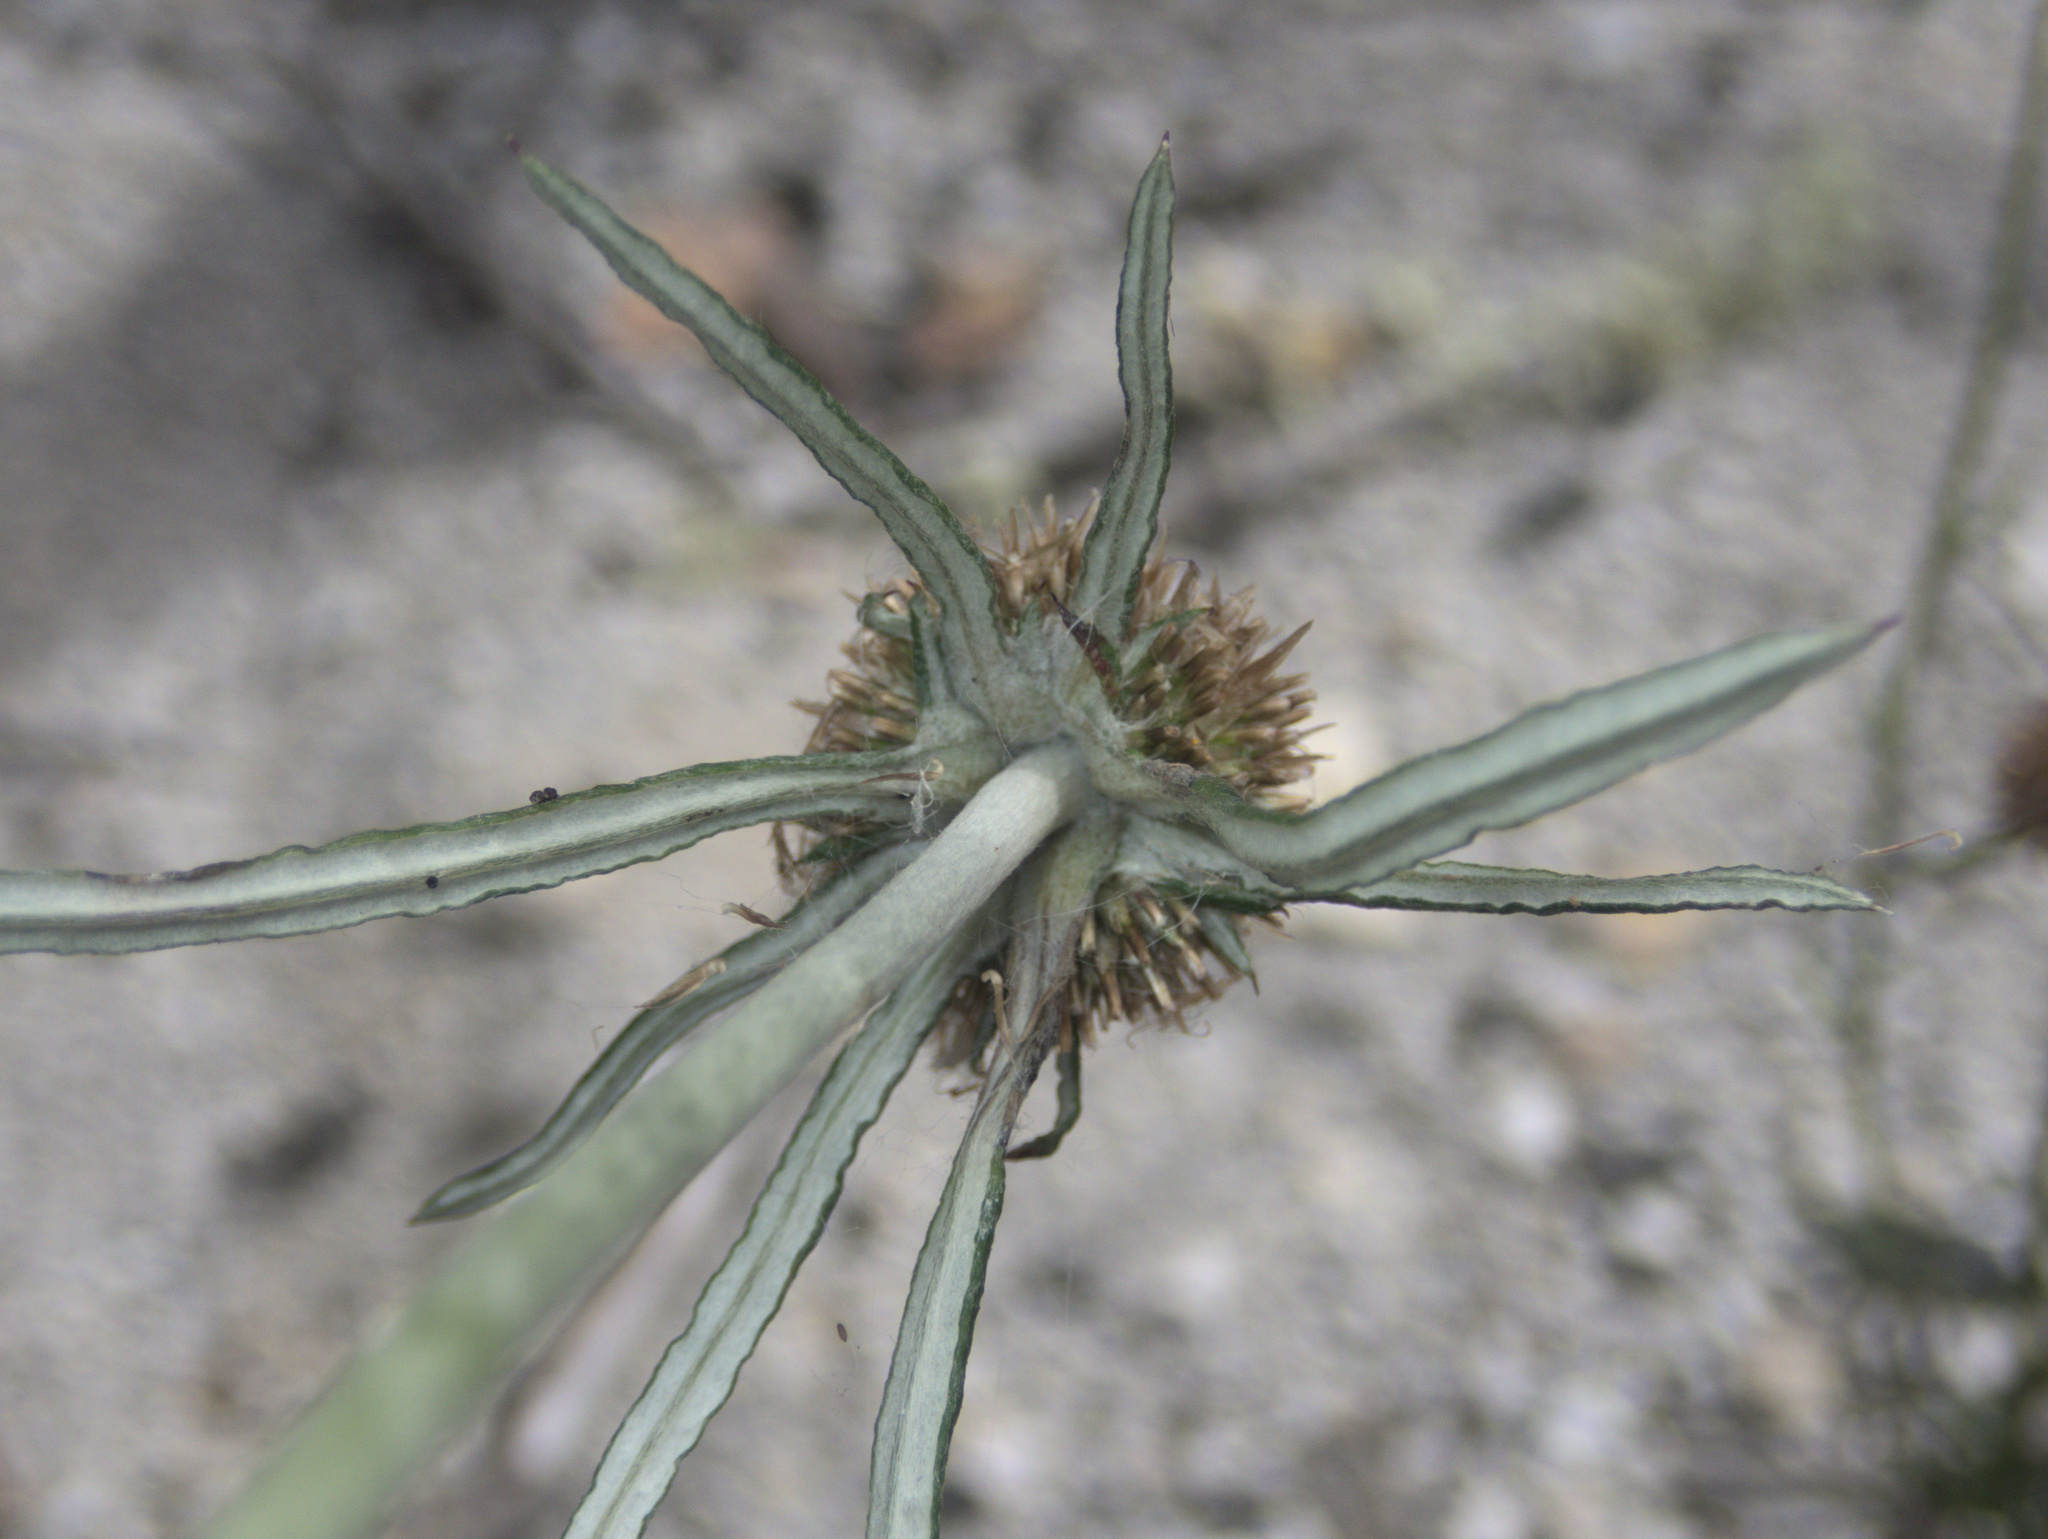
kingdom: Plantae
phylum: Tracheophyta
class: Magnoliopsida
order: Asterales
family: Asteraceae
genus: Euchiton
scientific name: Euchiton sphaericus
